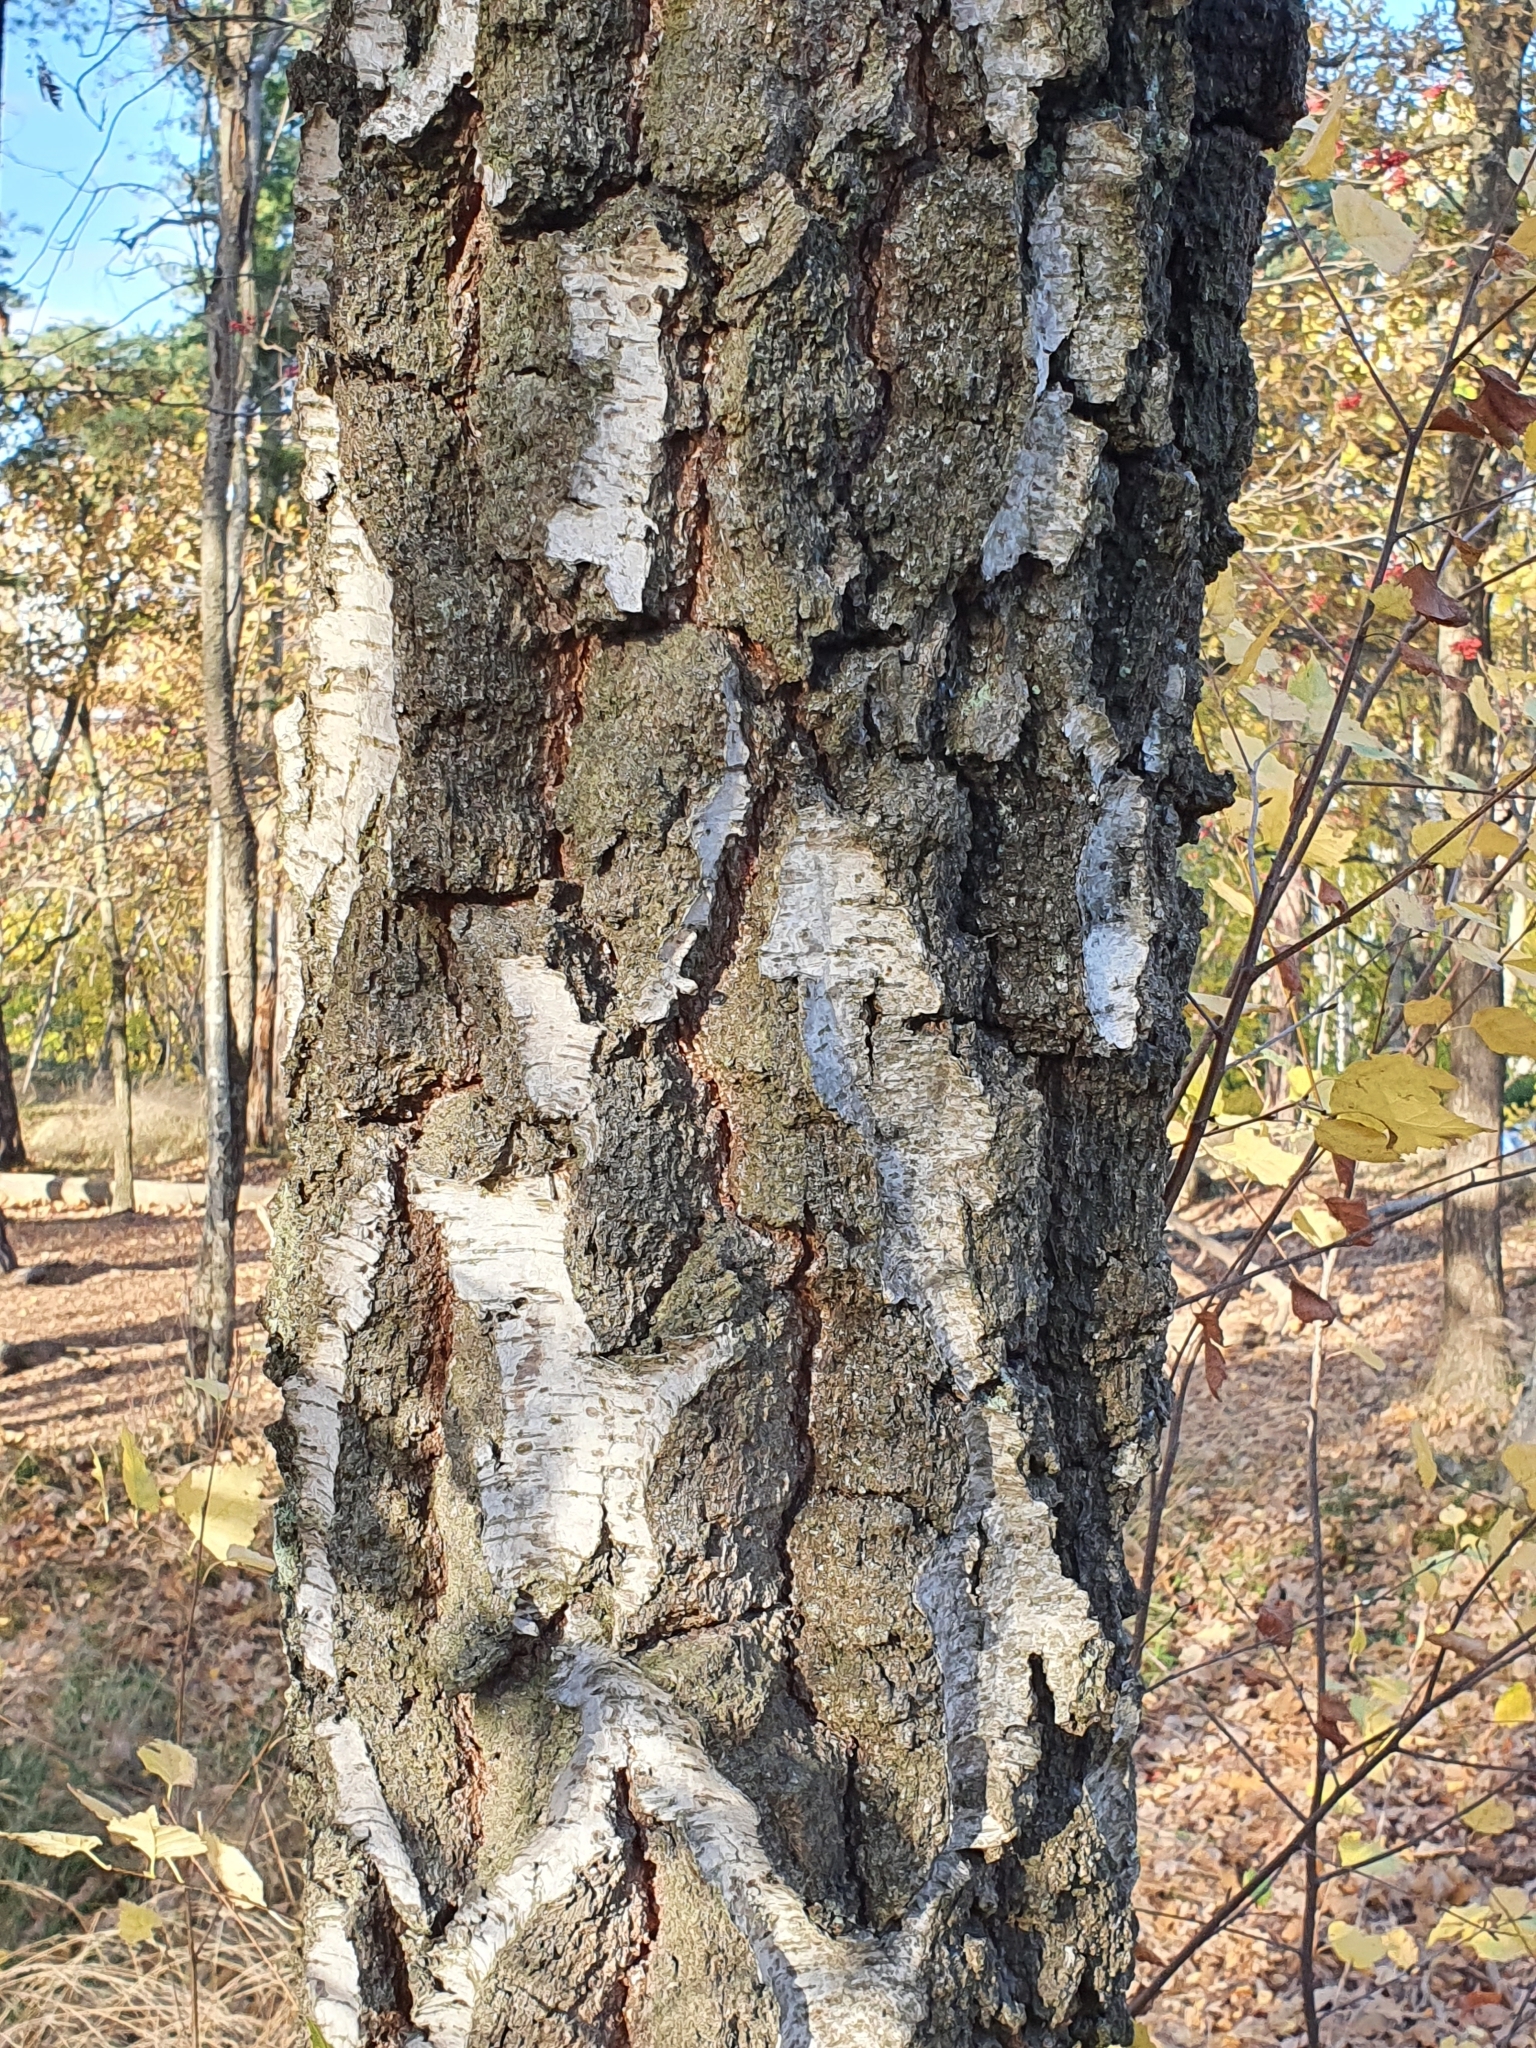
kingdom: Plantae
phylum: Tracheophyta
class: Magnoliopsida
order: Fagales
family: Betulaceae
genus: Betula
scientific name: Betula pendula
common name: Silver birch
